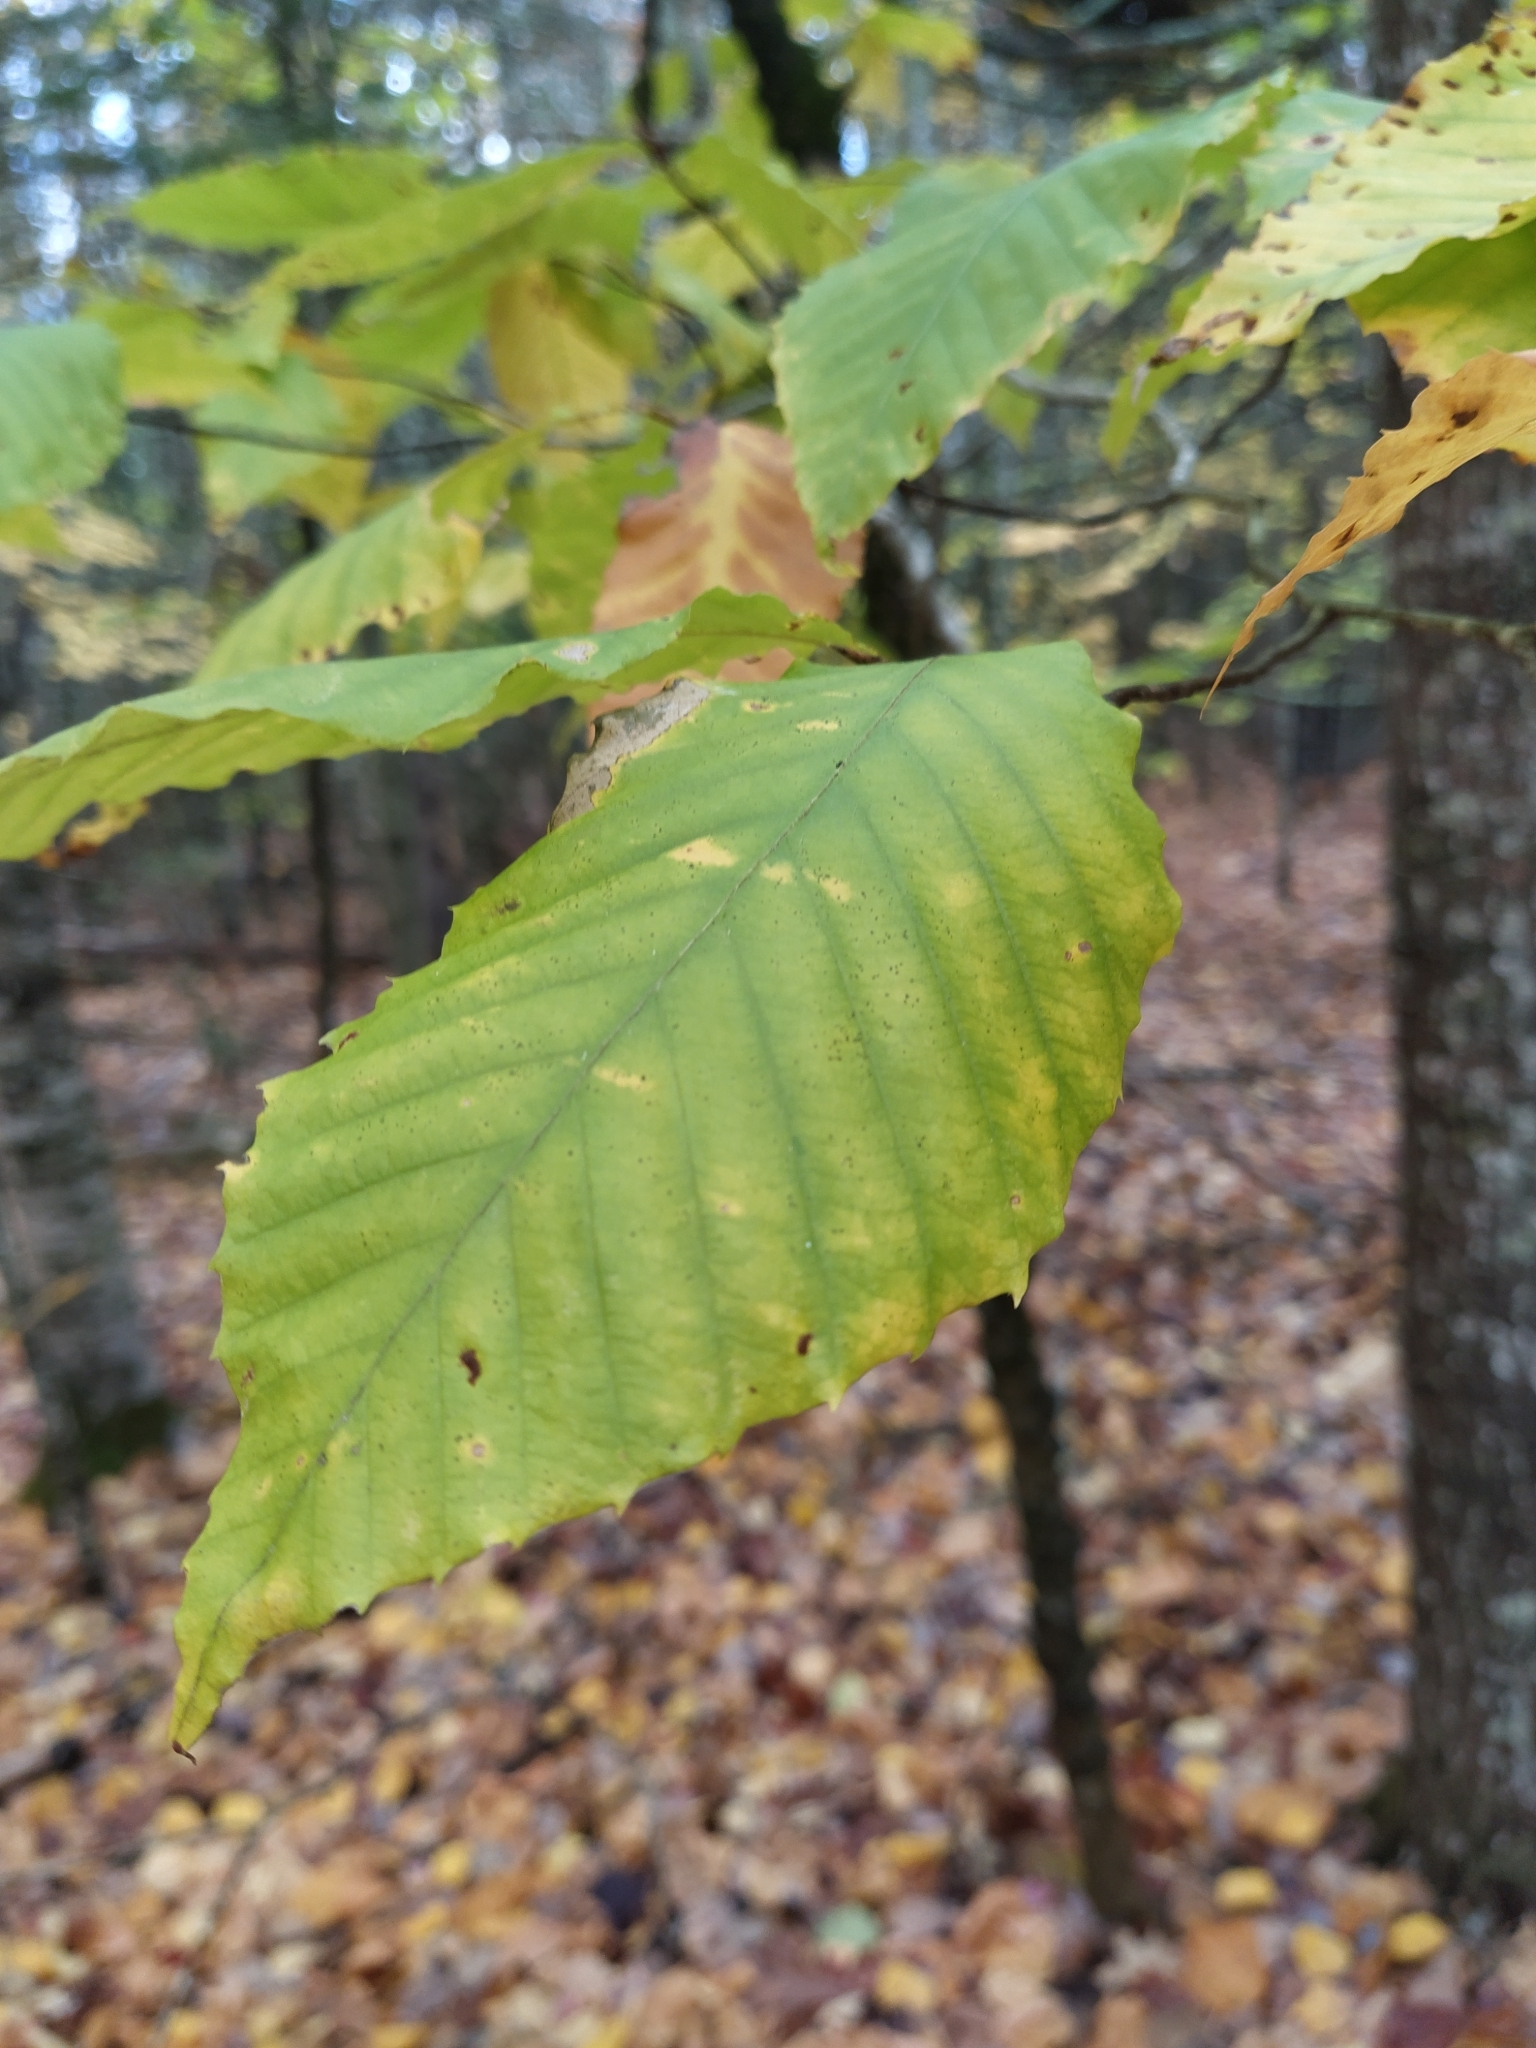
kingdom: Plantae
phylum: Tracheophyta
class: Magnoliopsida
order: Fagales
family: Fagaceae
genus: Fagus
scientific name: Fagus grandifolia
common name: American beech
